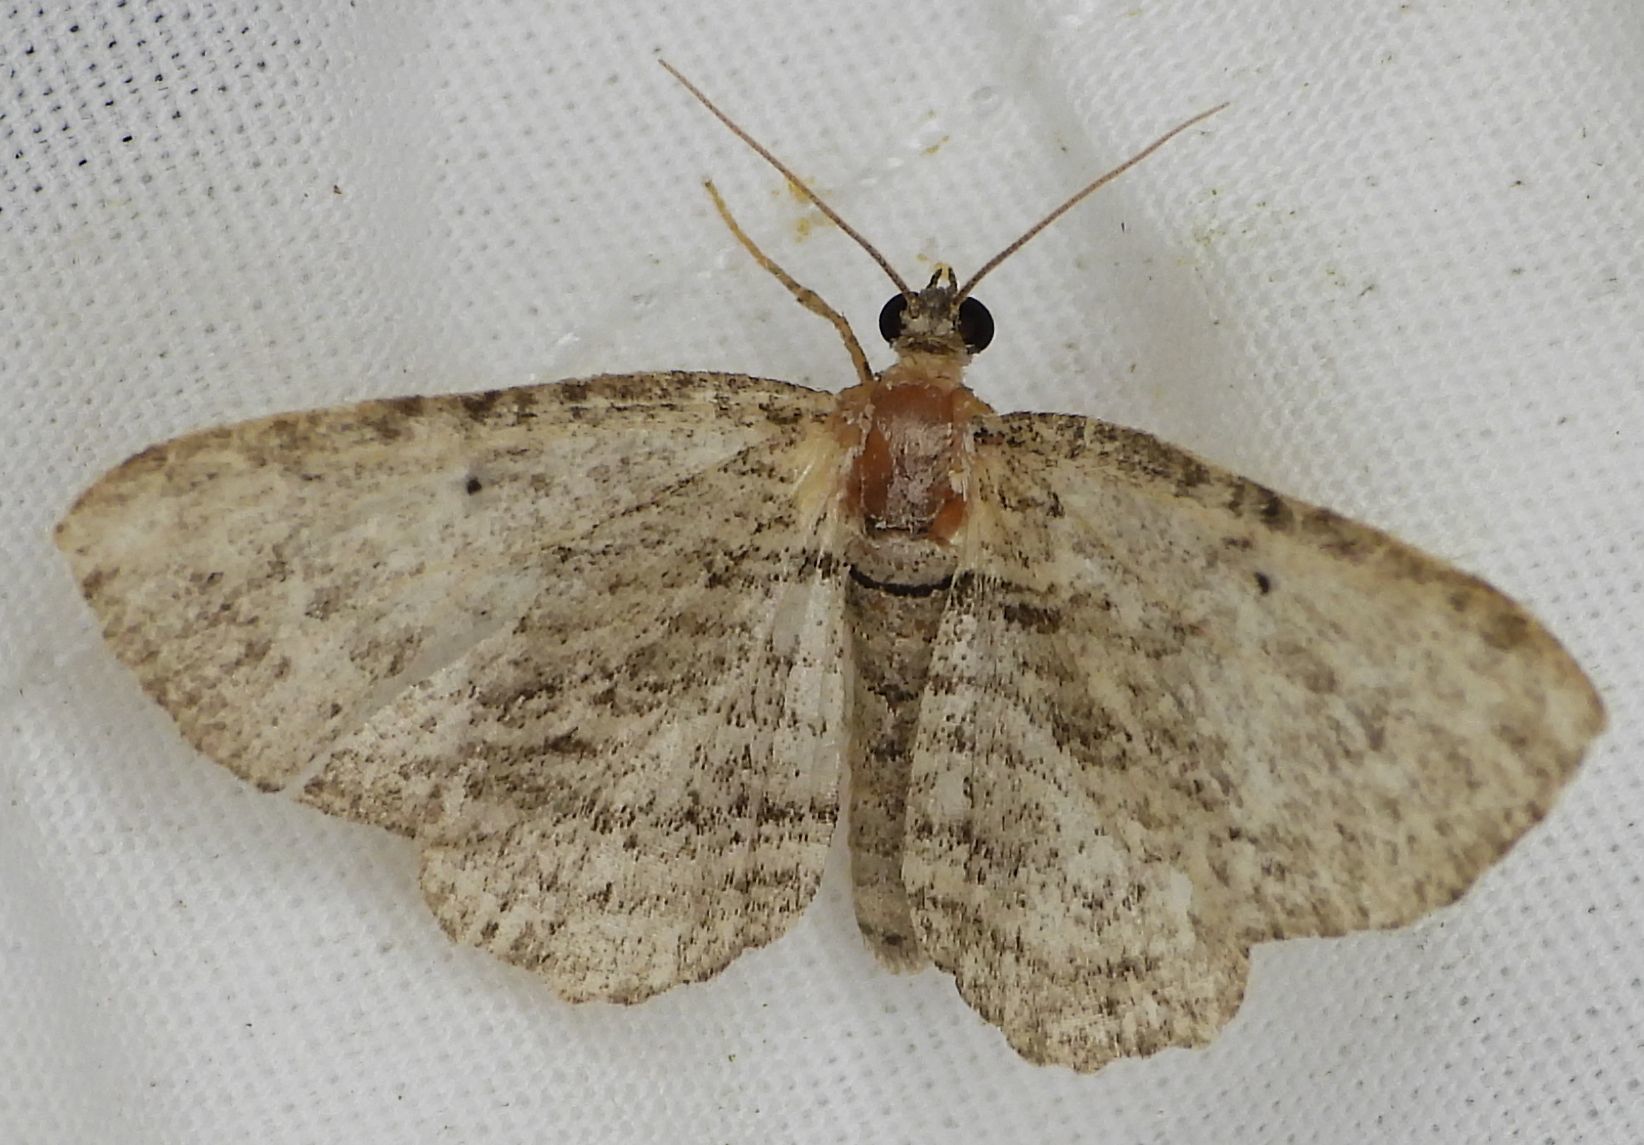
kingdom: Animalia
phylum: Arthropoda
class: Insecta
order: Lepidoptera
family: Geometridae
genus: Horisme
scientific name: Horisme intestinata
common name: Brown bark carpet
